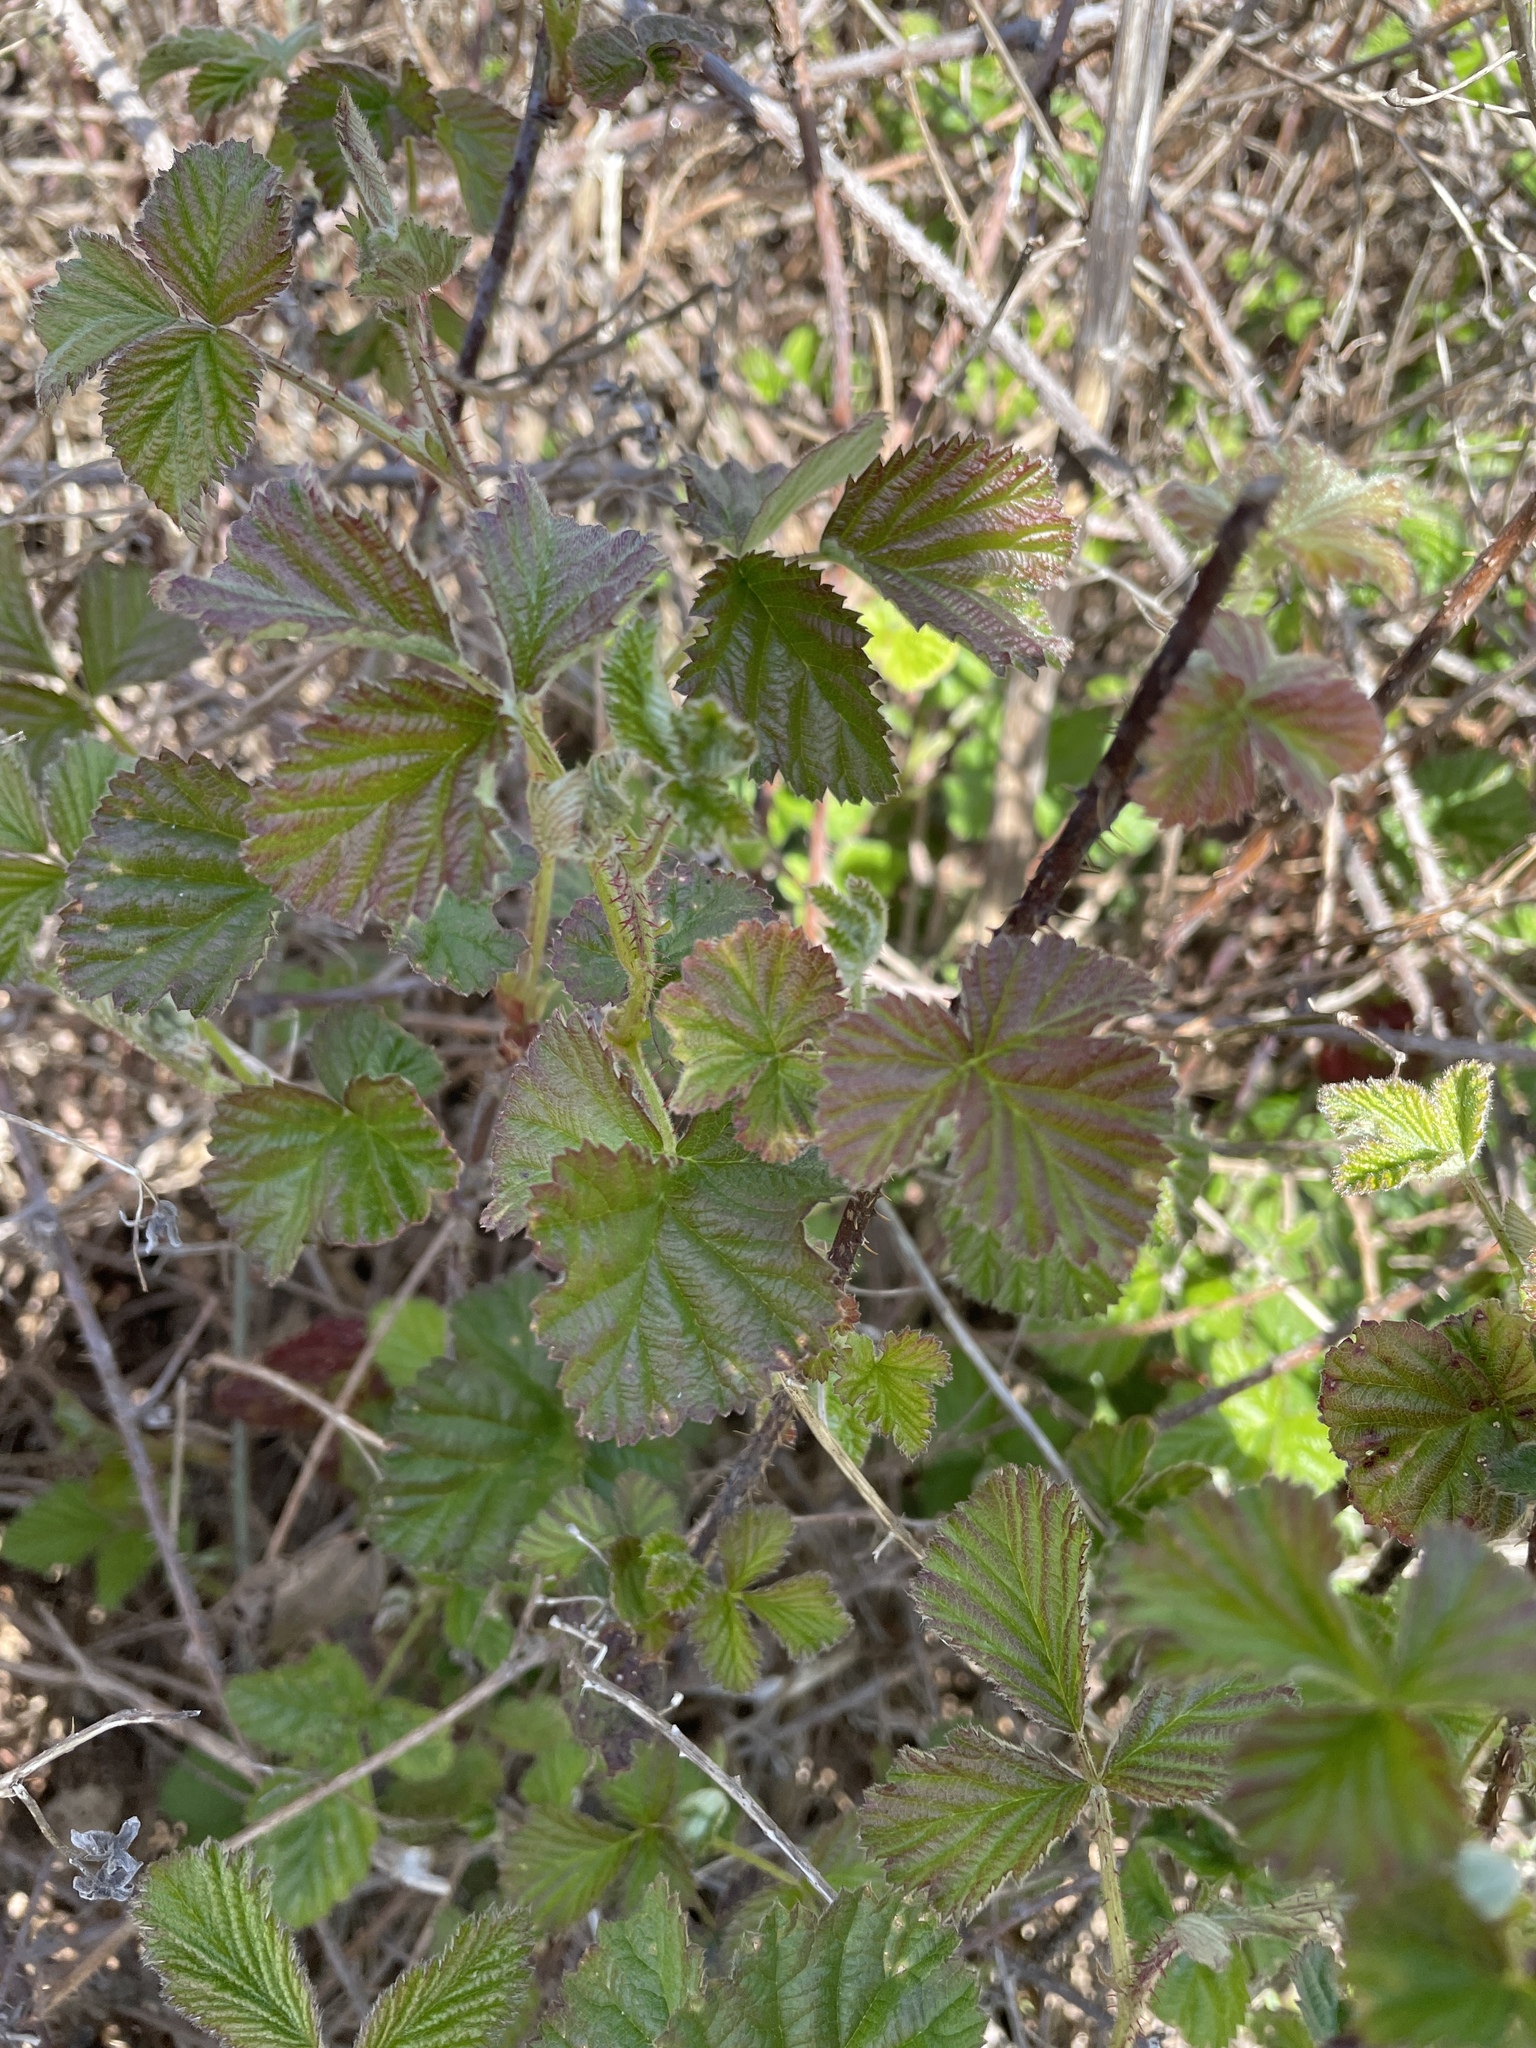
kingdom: Plantae
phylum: Tracheophyta
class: Magnoliopsida
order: Rosales
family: Rosaceae
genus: Rubus
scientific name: Rubus ursinus
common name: Pacific blackberry
